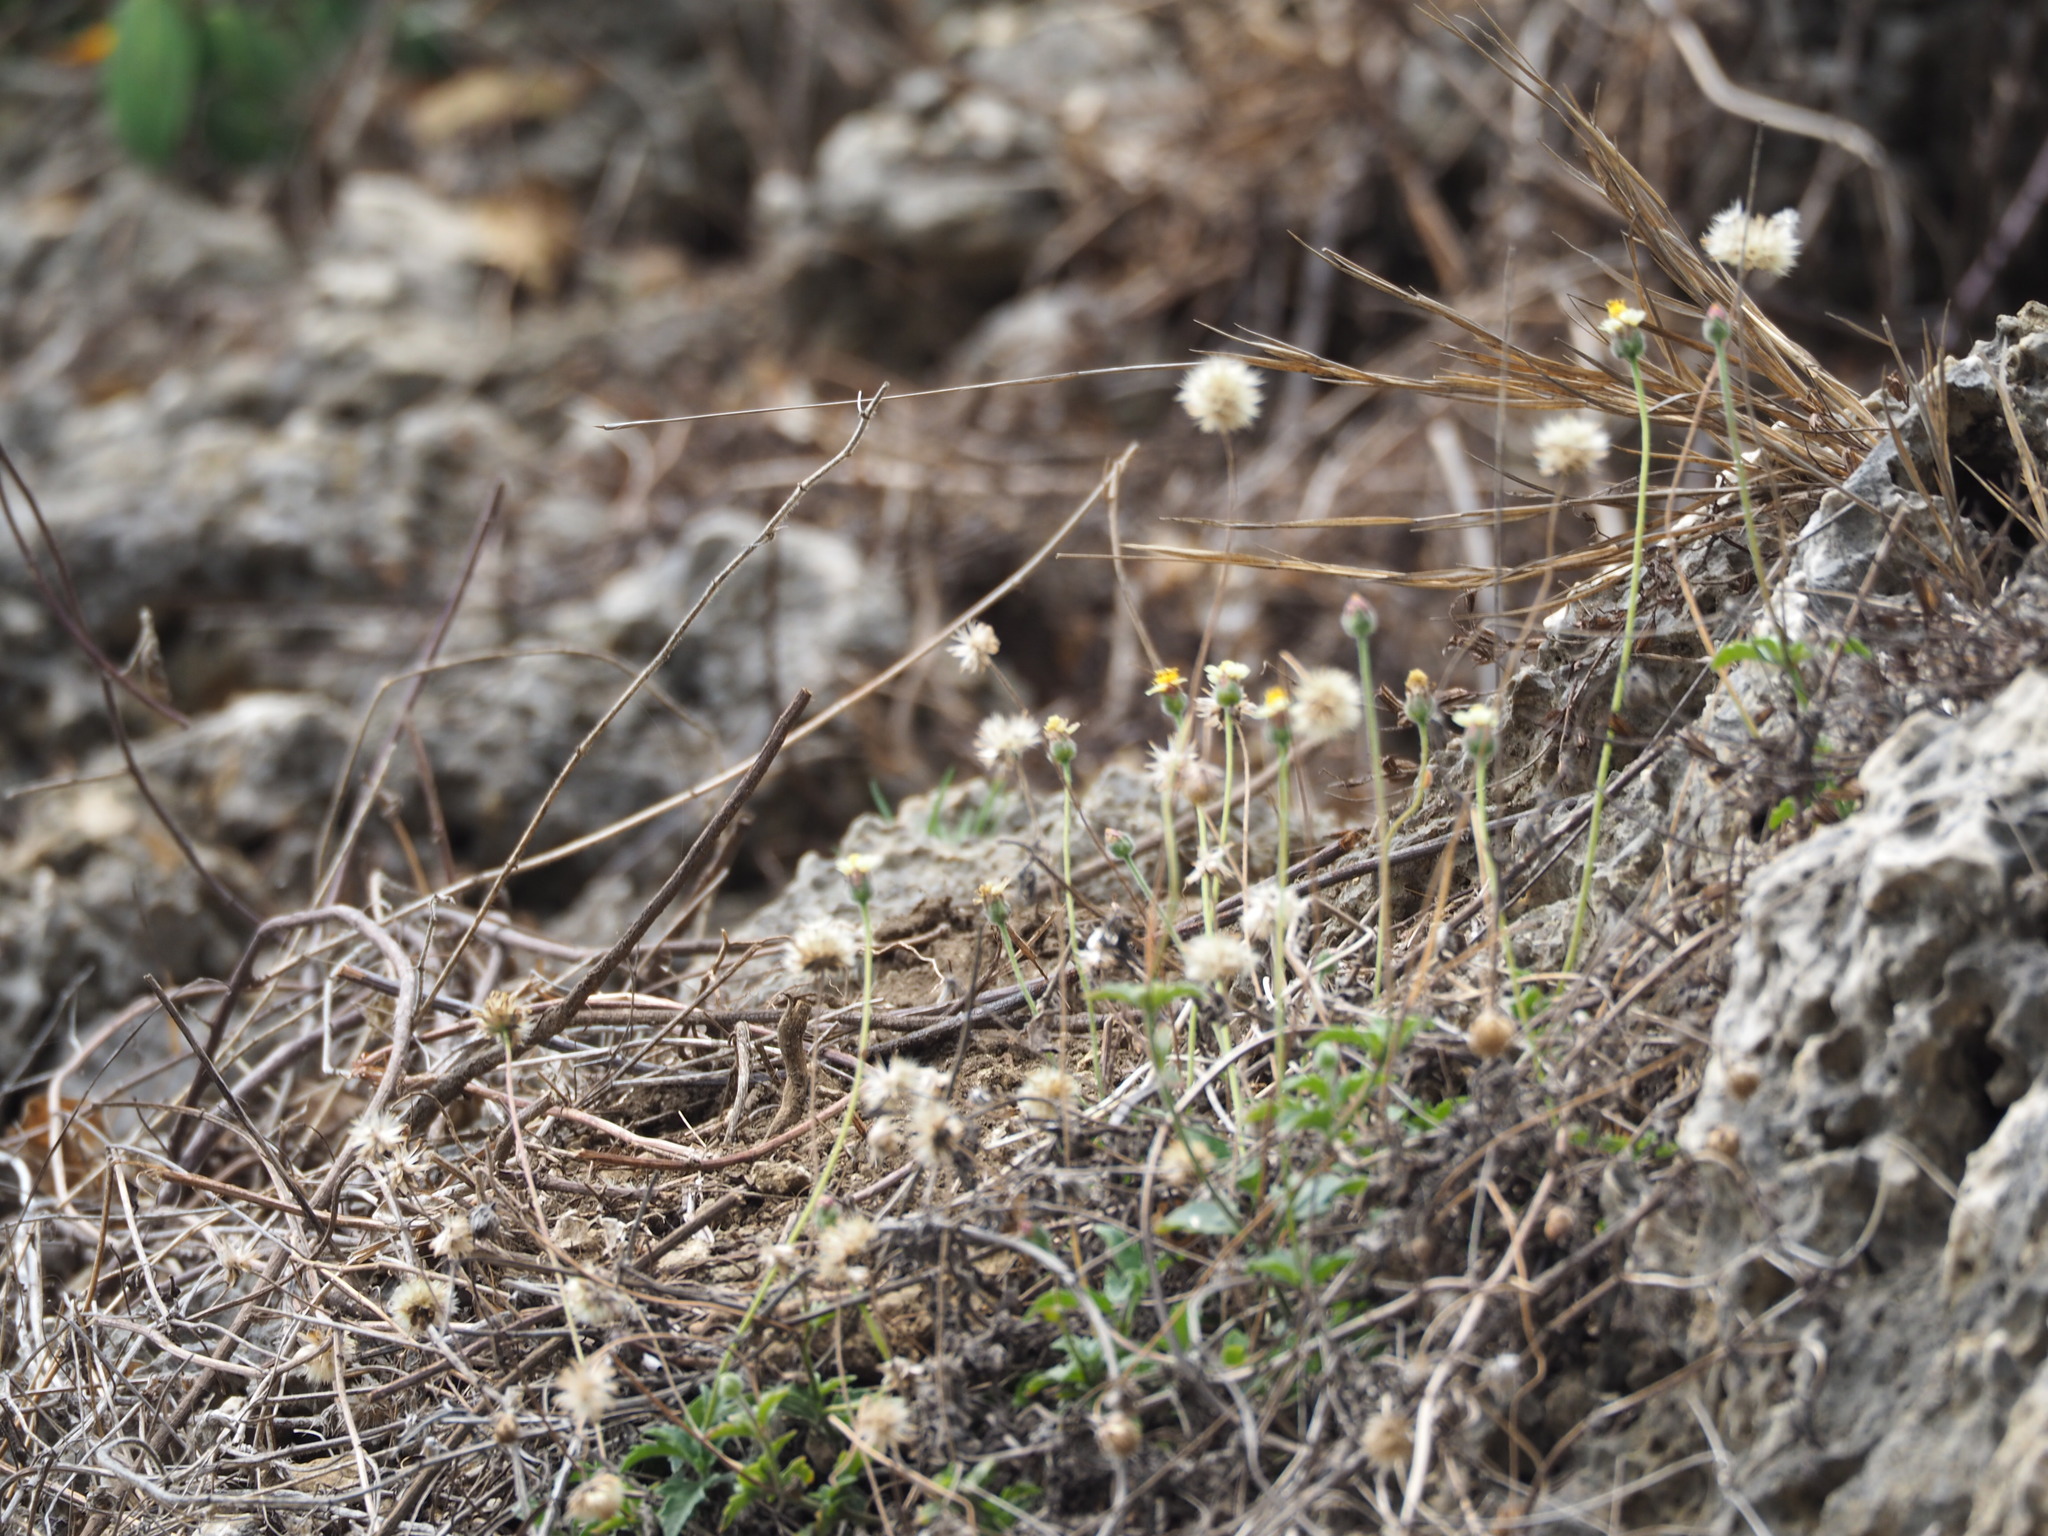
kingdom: Plantae
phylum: Tracheophyta
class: Magnoliopsida
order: Asterales
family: Asteraceae
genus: Tridax
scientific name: Tridax procumbens
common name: Coatbuttons
